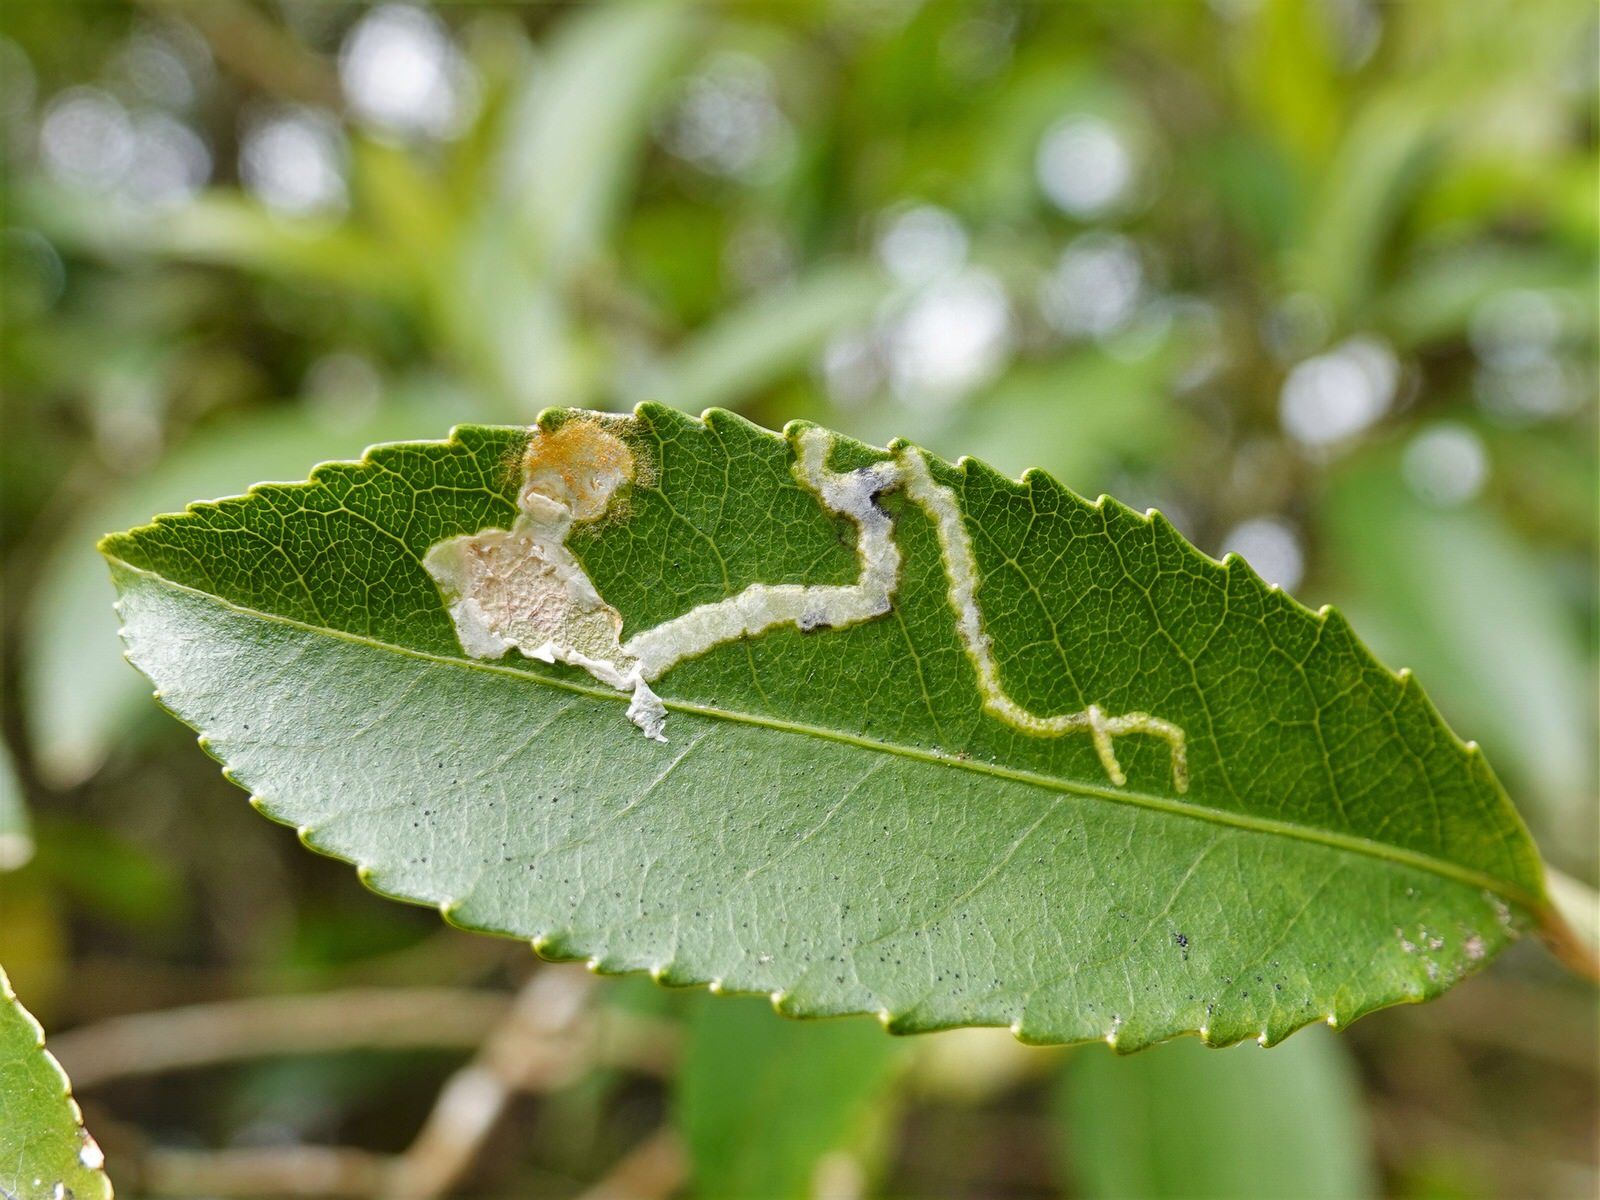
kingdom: Animalia
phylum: Arthropoda
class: Insecta
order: Diptera
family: Agromyzidae
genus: Liriomyza
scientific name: Liriomyza flavolateralis
